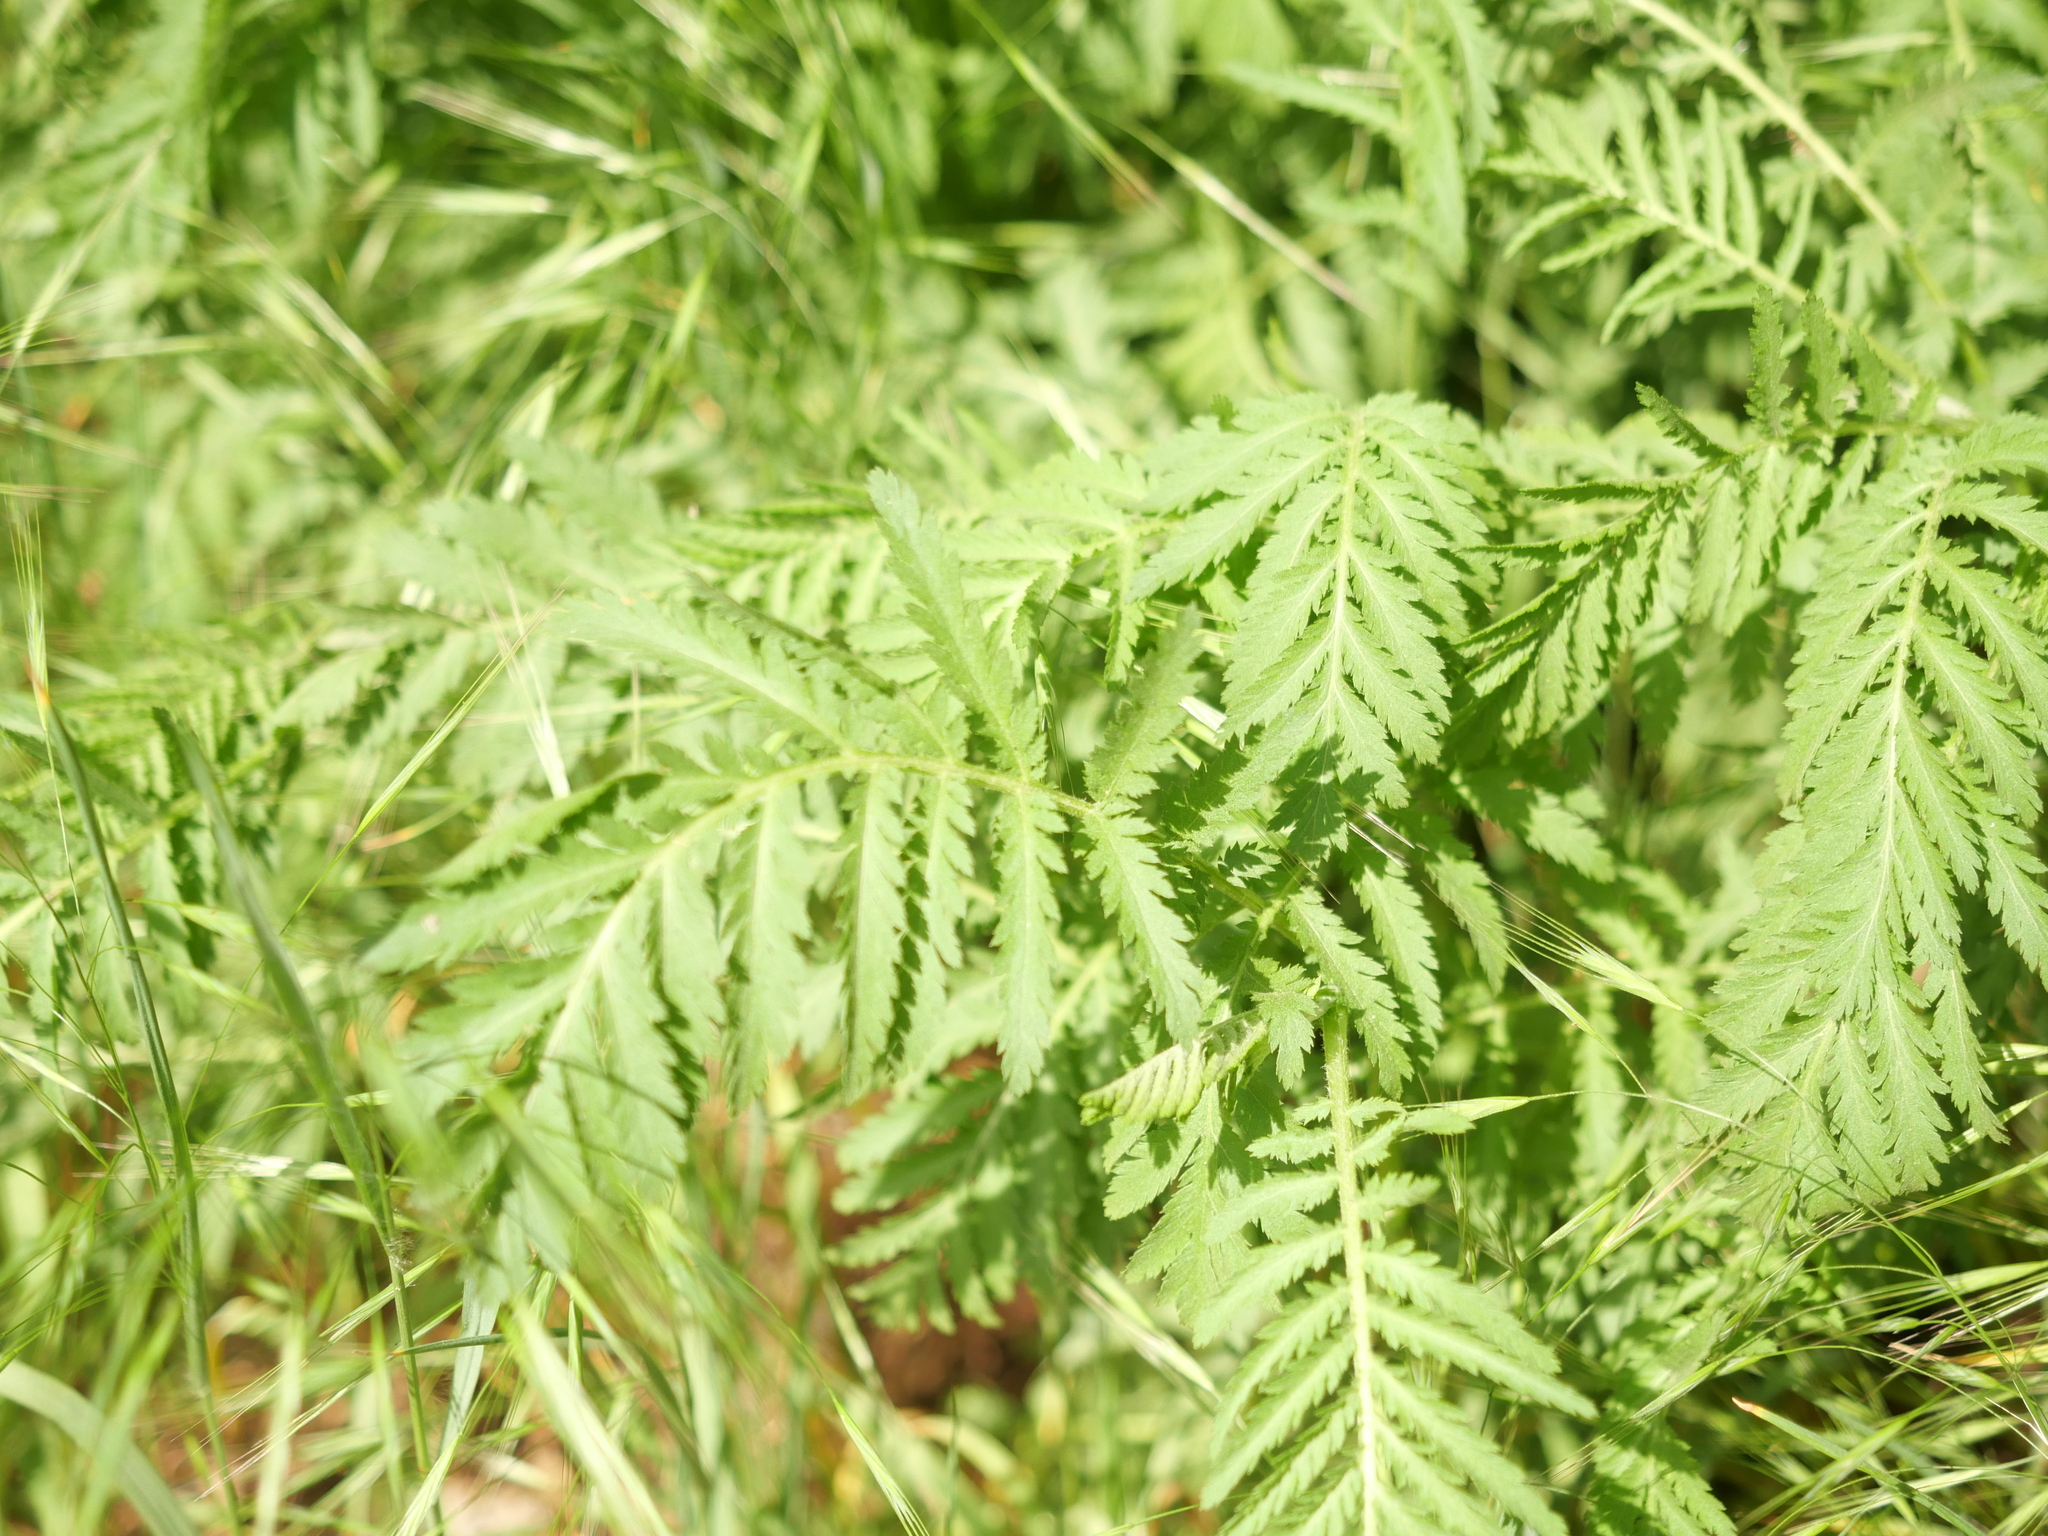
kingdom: Plantae
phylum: Tracheophyta
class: Magnoliopsida
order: Asterales
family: Asteraceae
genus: Tanacetum
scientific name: Tanacetum vulgare
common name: Common tansy
